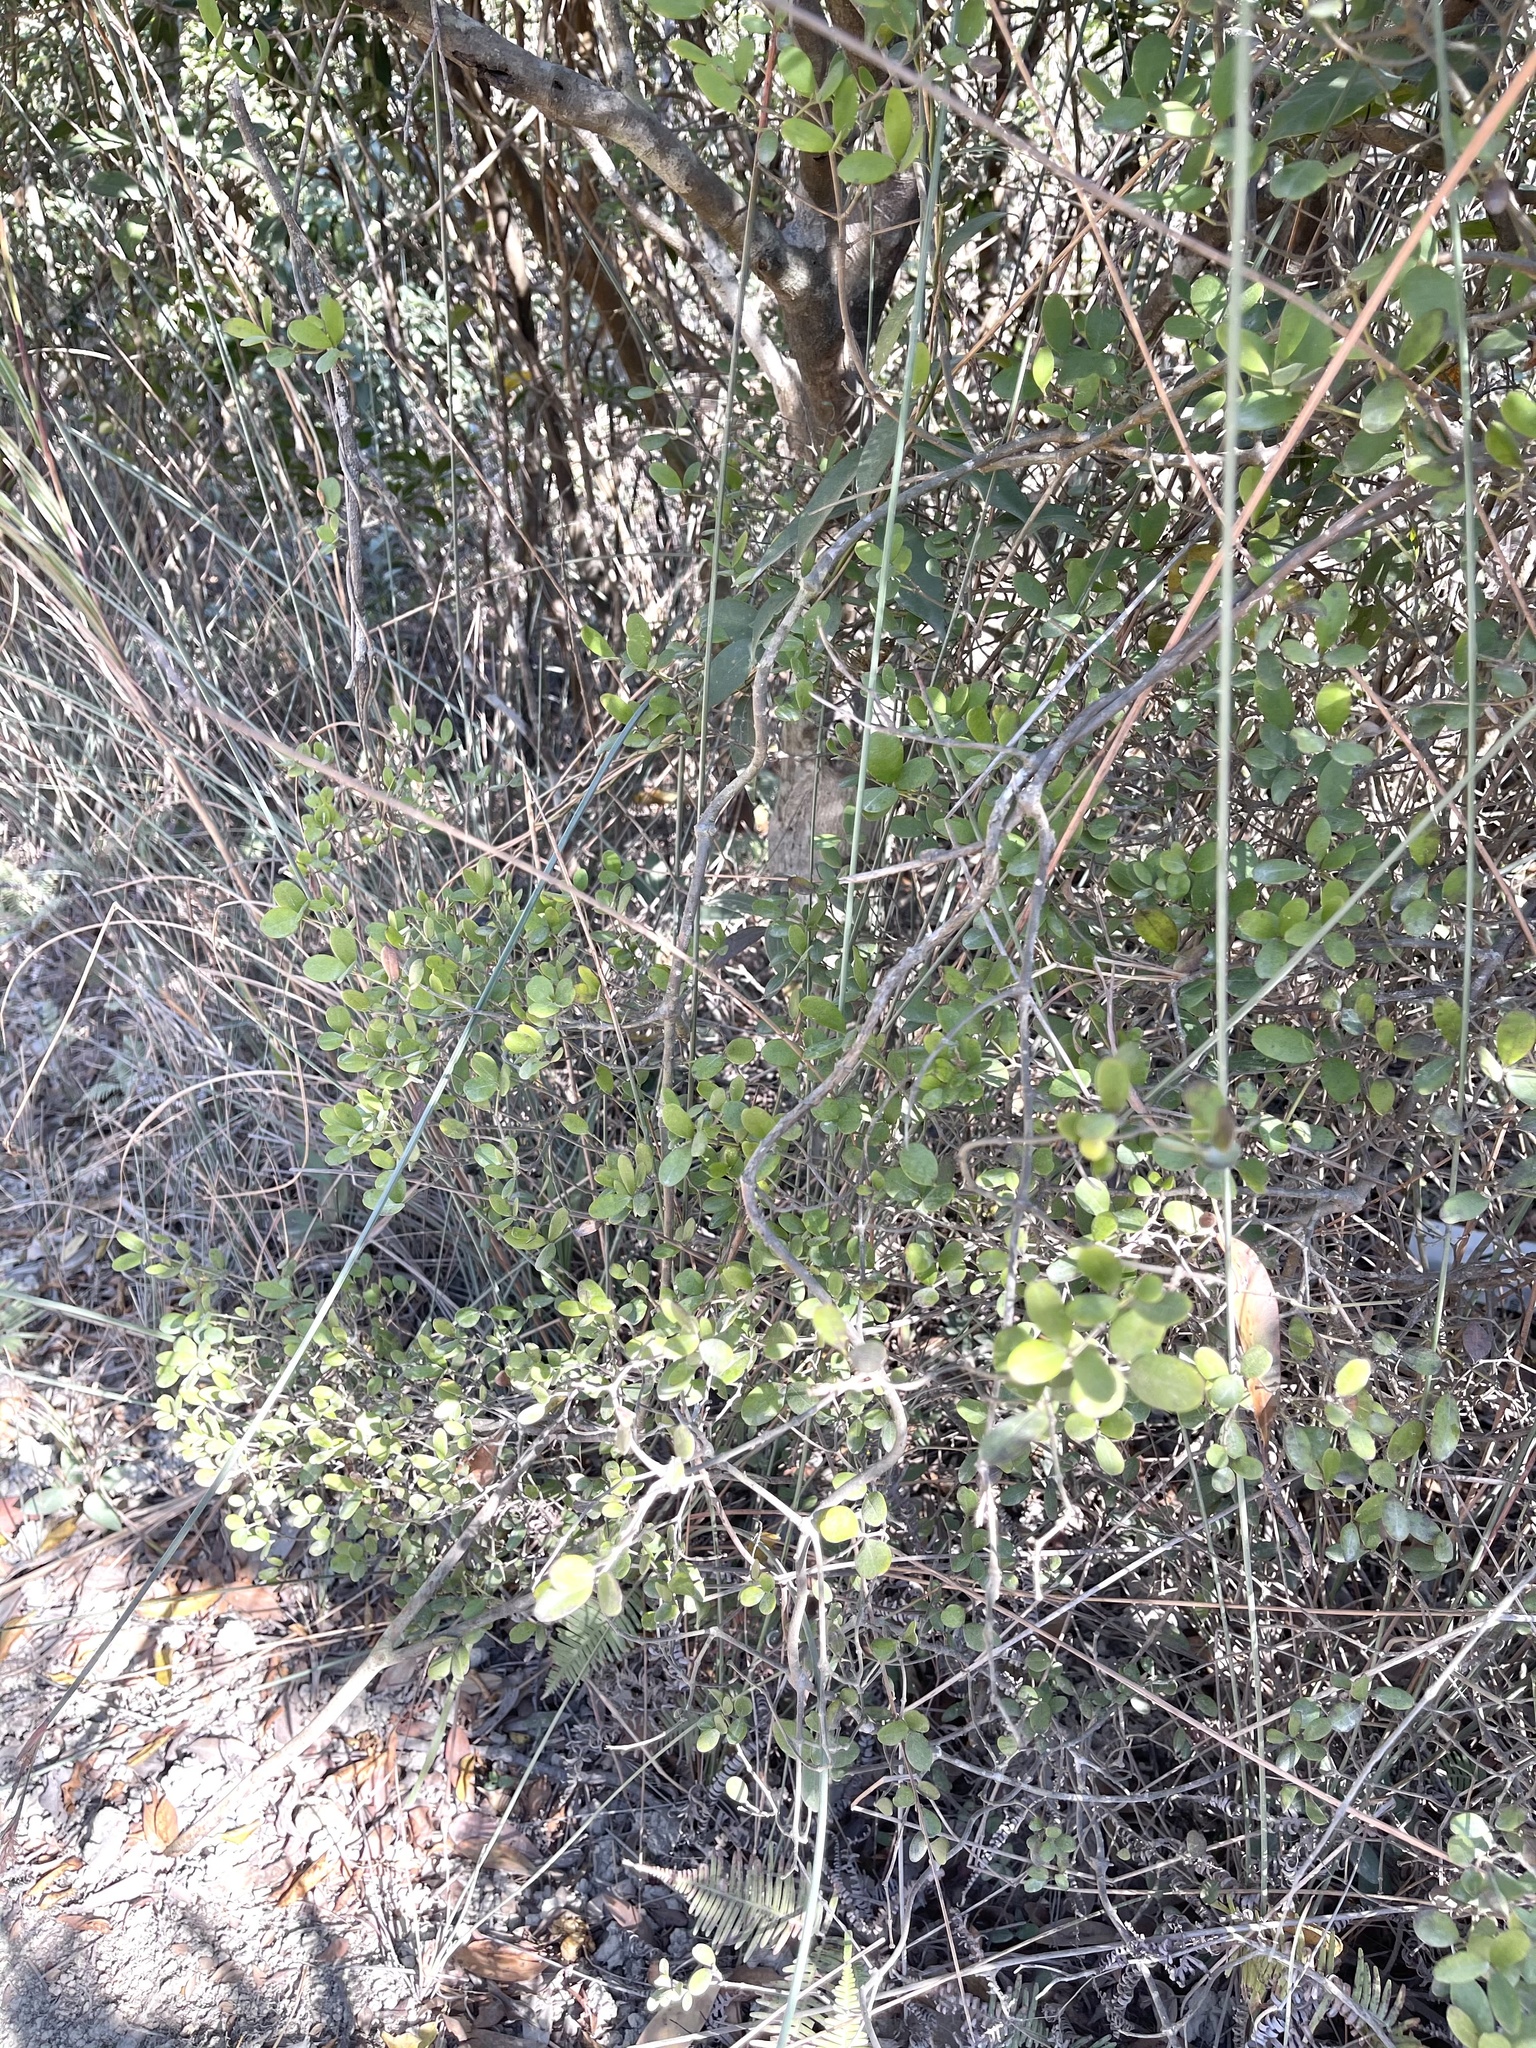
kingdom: Plantae
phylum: Tracheophyta
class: Magnoliopsida
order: Gentianales
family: Apocynaceae
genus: Alyxia
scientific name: Alyxia sinensis
